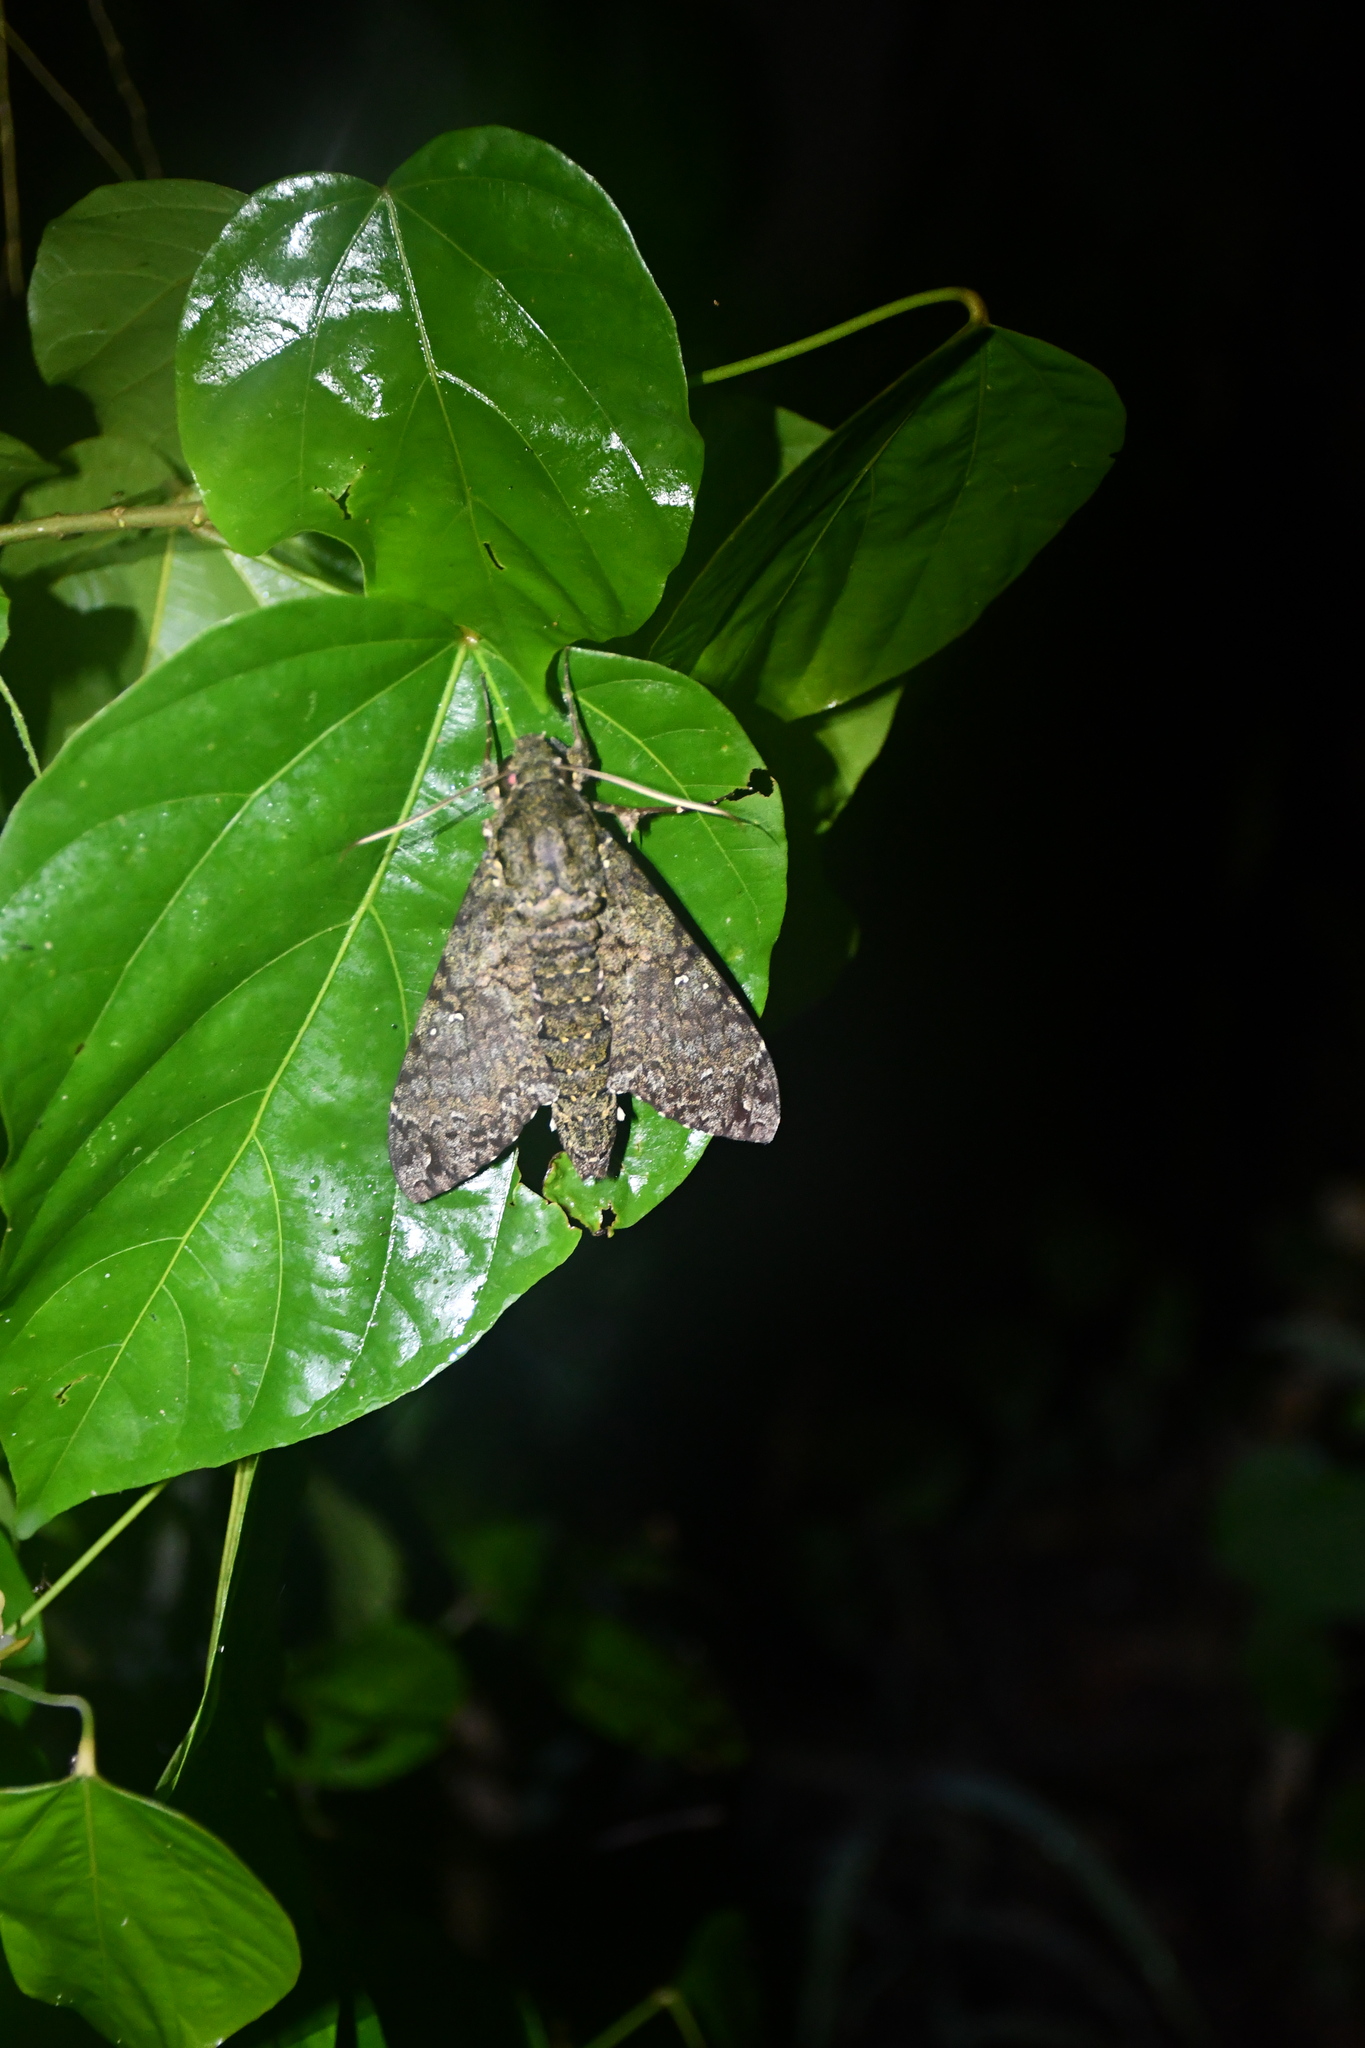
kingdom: Animalia
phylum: Arthropoda
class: Insecta
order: Lepidoptera
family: Sphingidae
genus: Cocytius
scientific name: Cocytius duponchel
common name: Duponchel's sphinx
